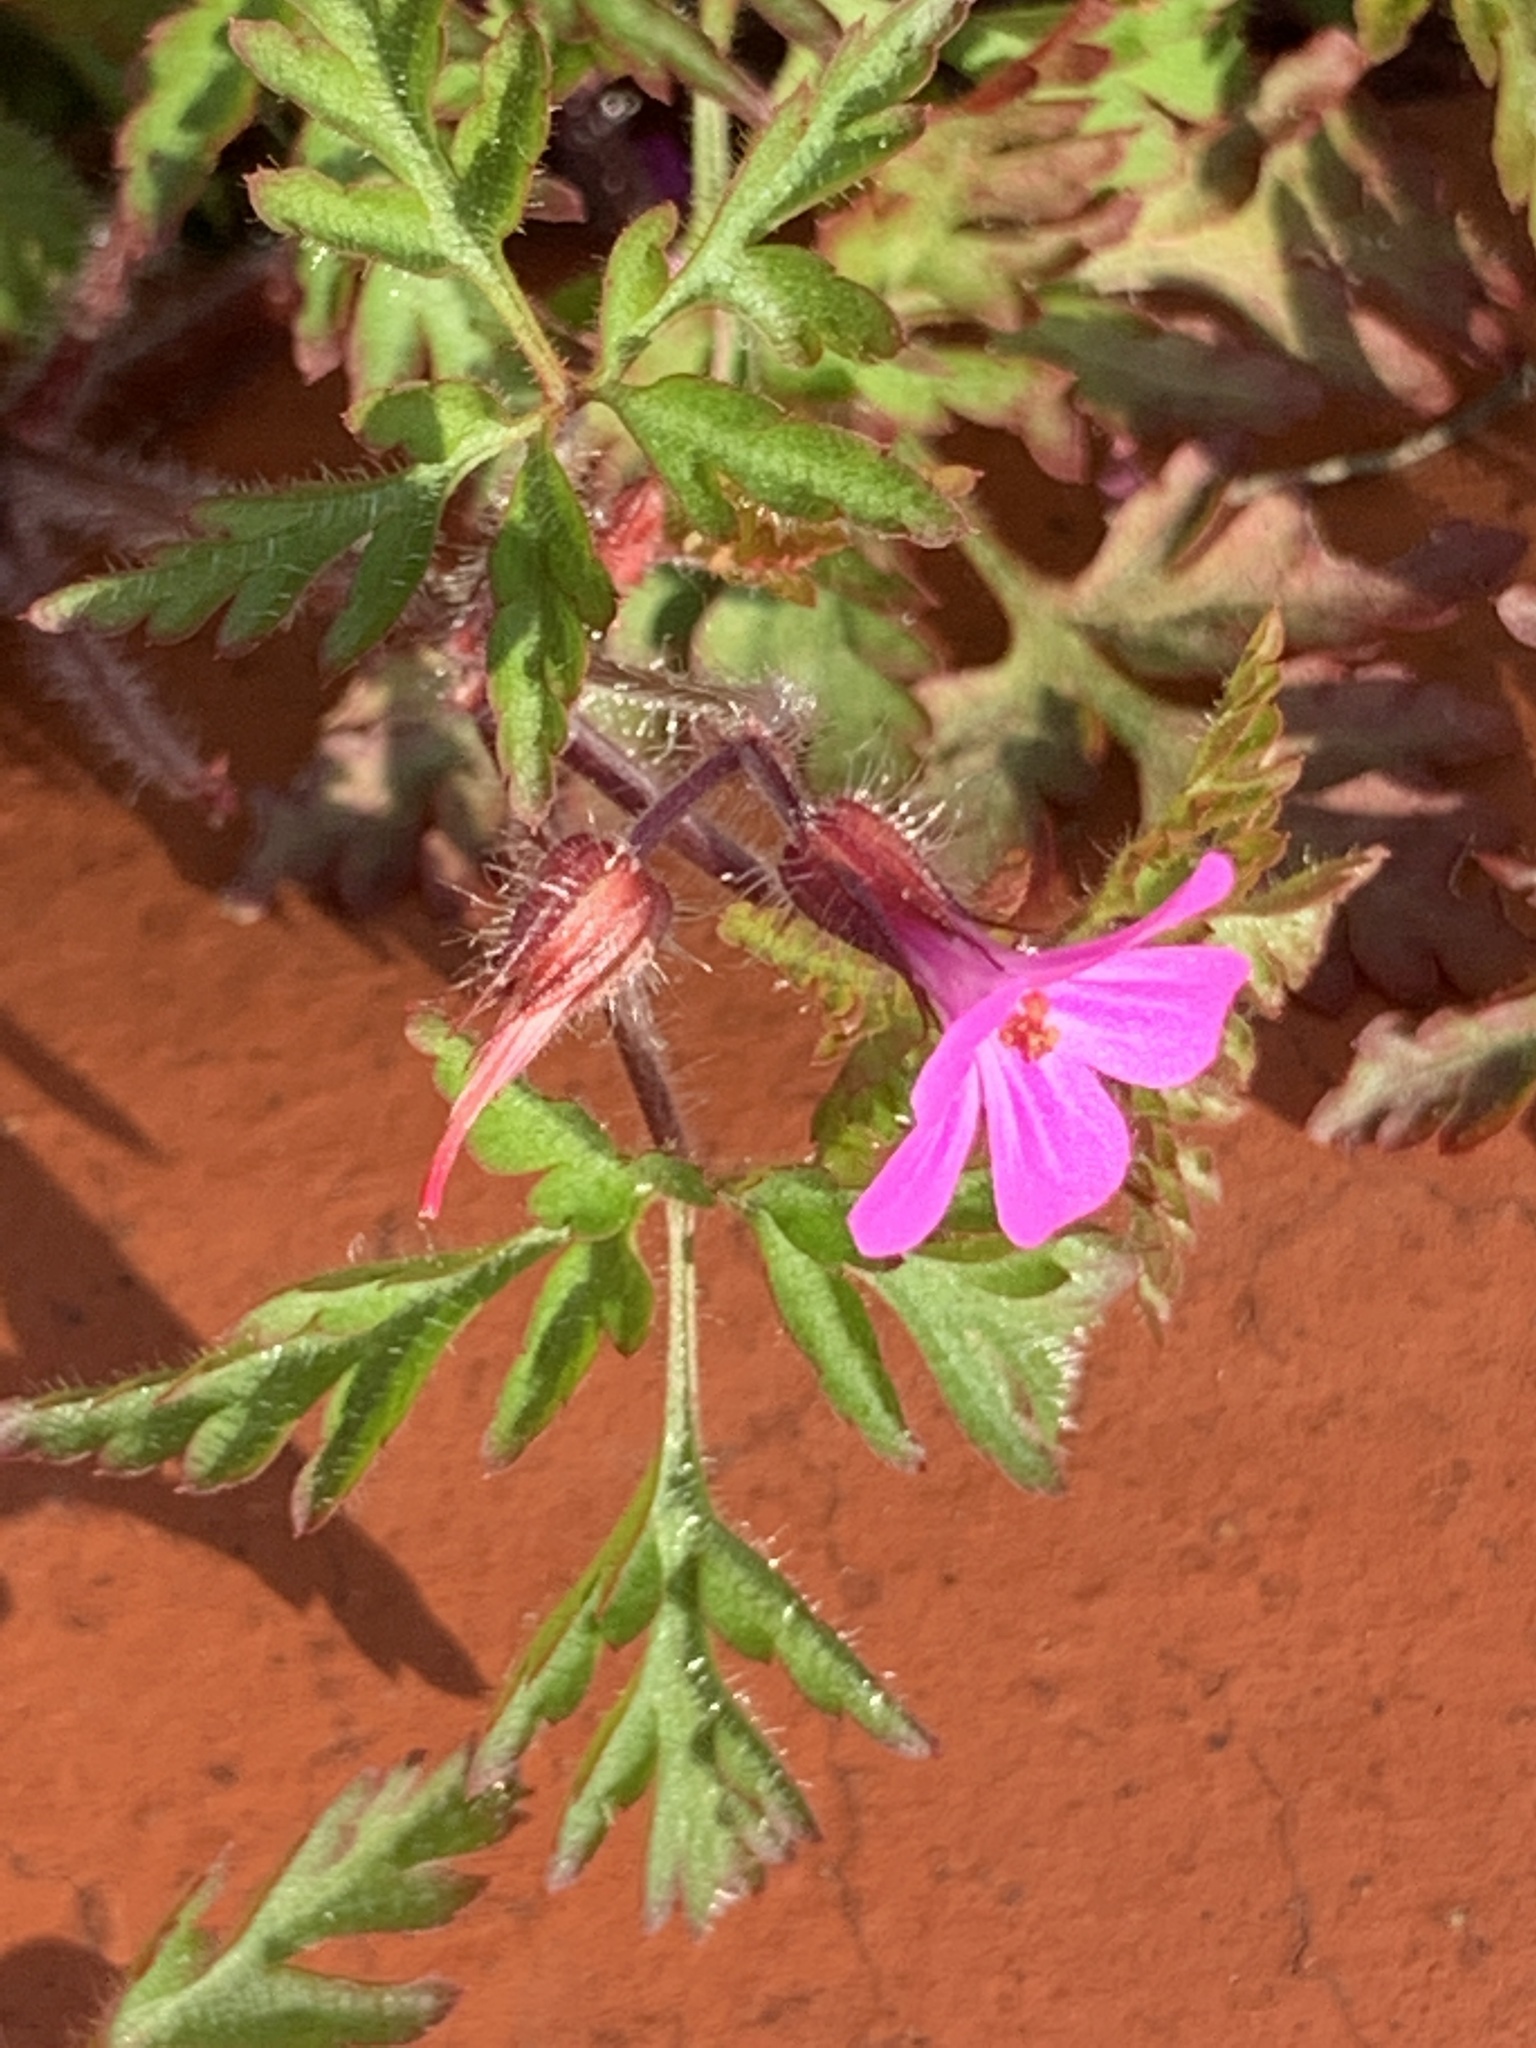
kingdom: Plantae
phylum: Tracheophyta
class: Magnoliopsida
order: Geraniales
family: Geraniaceae
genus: Geranium
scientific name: Geranium robertianum
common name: Herb-robert
